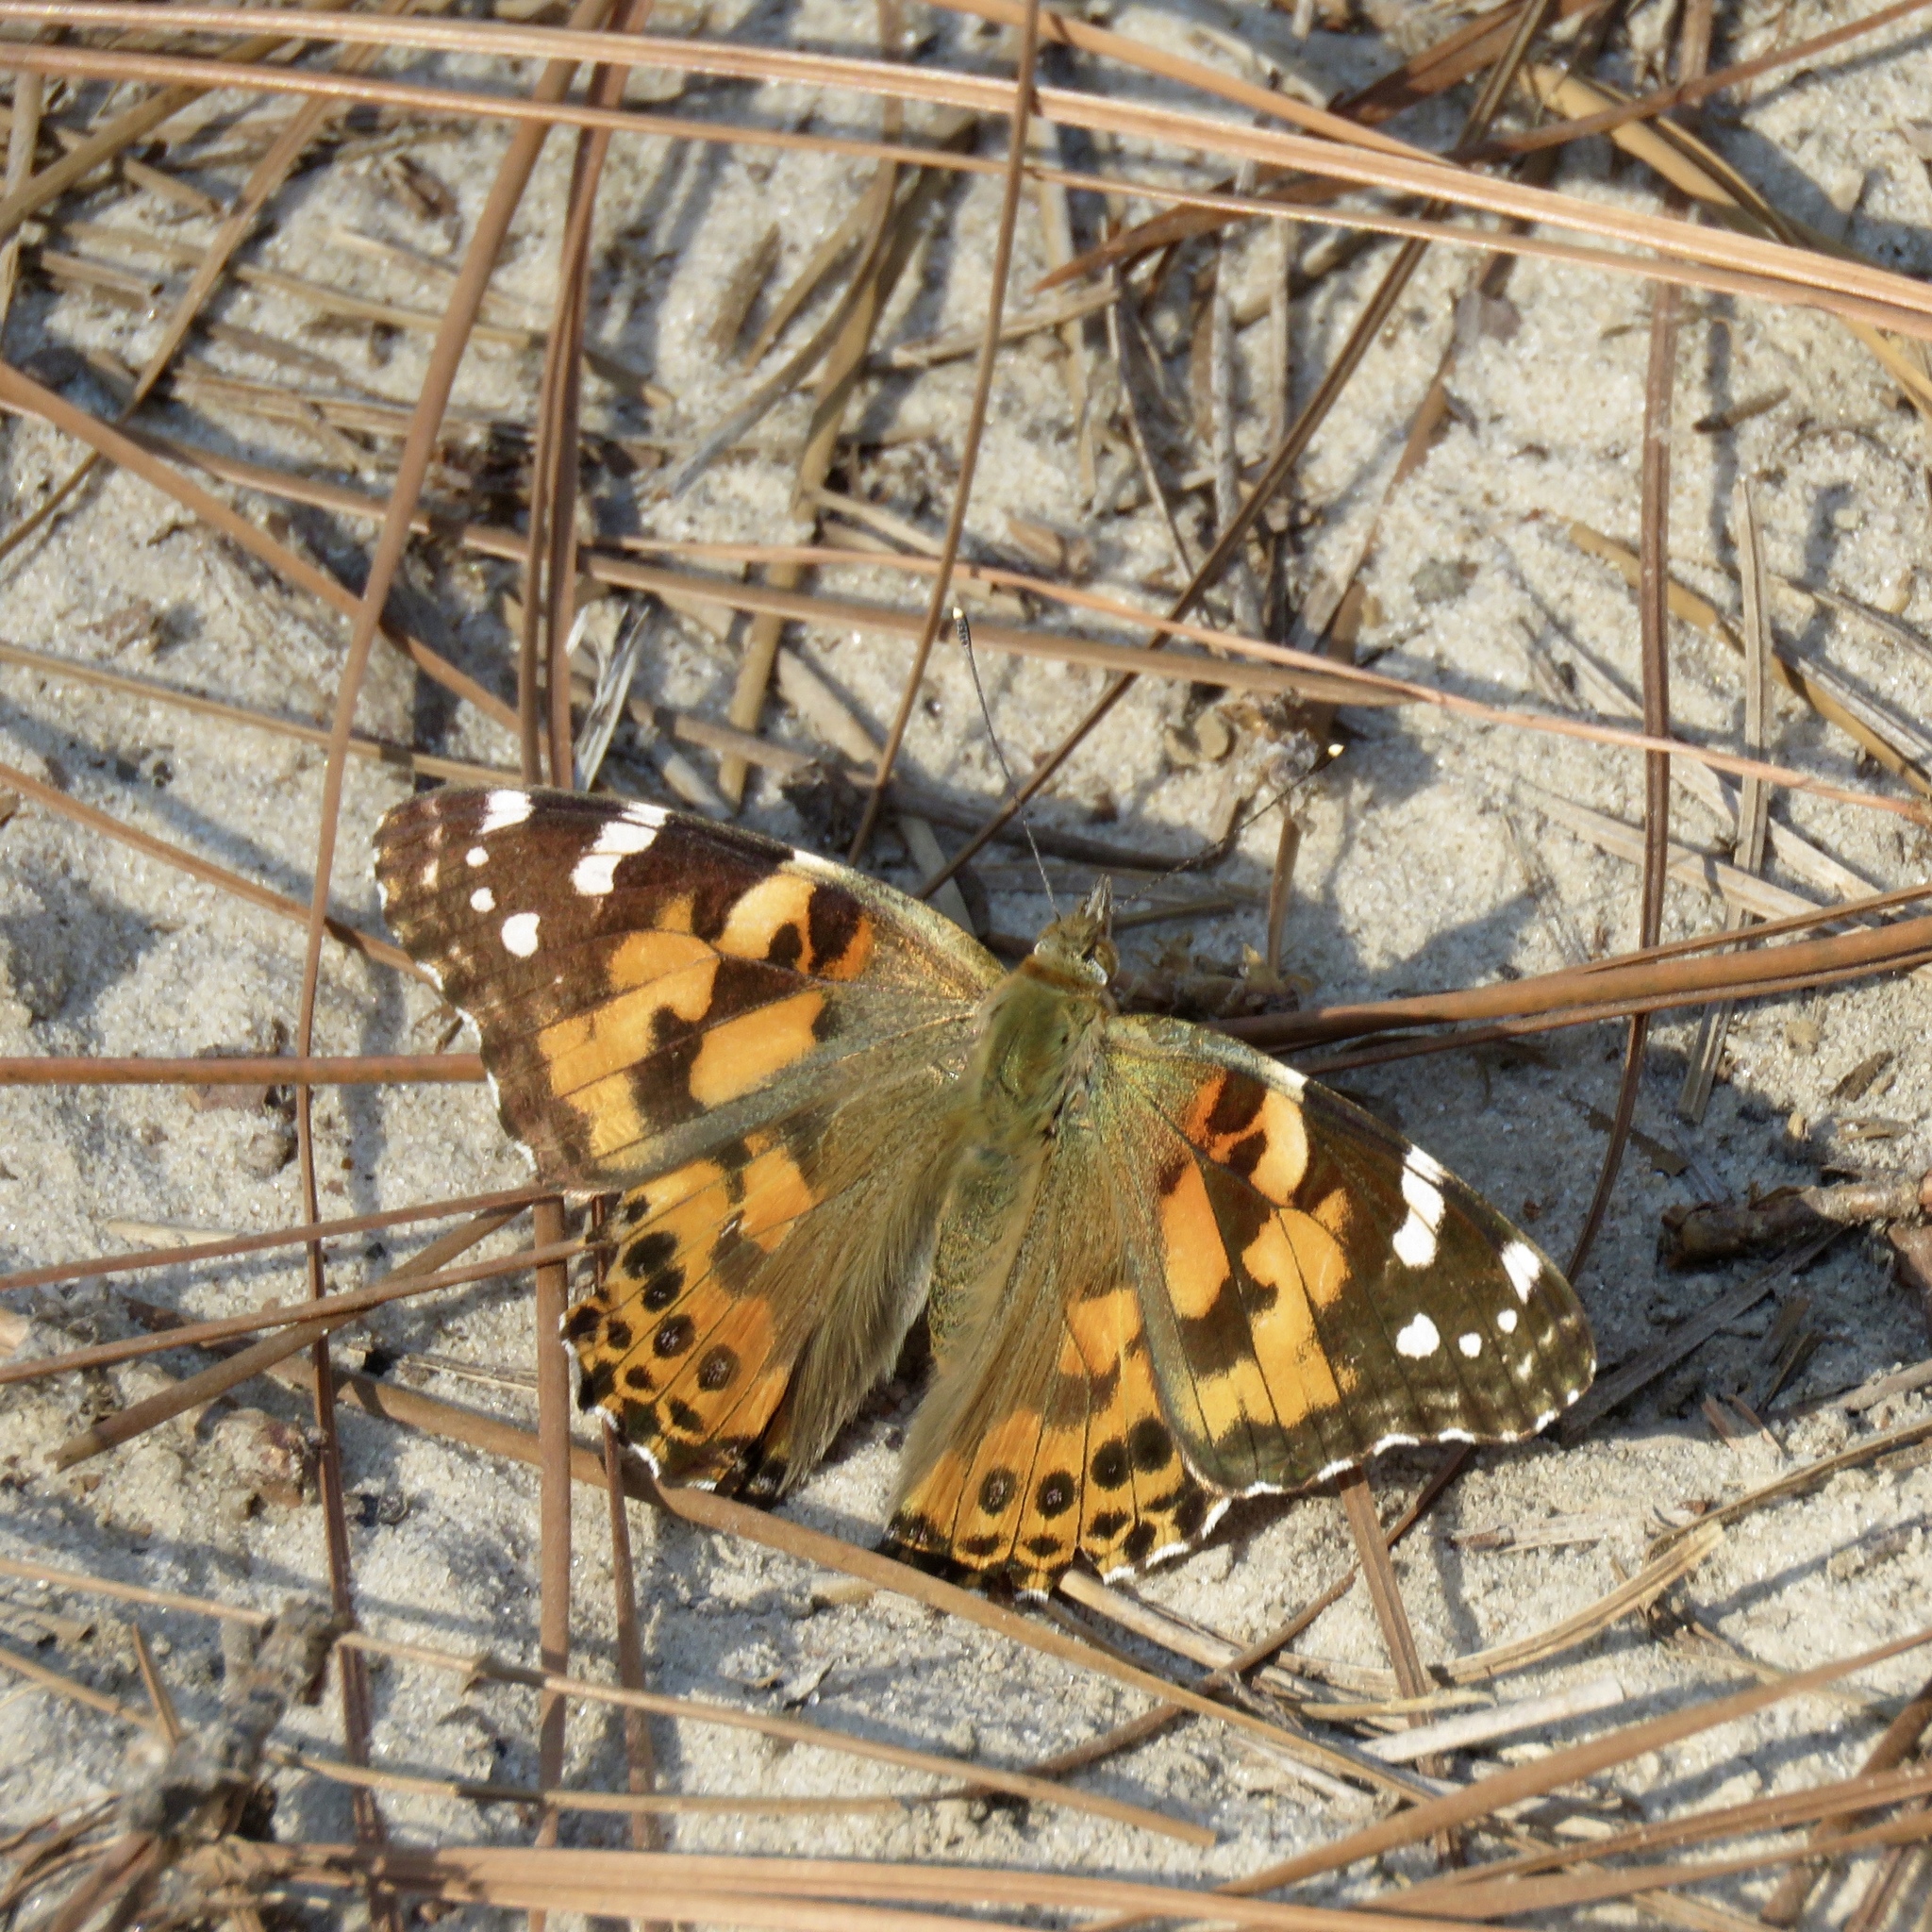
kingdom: Animalia
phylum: Arthropoda
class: Insecta
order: Lepidoptera
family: Nymphalidae
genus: Vanessa
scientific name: Vanessa cardui
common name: Painted lady
